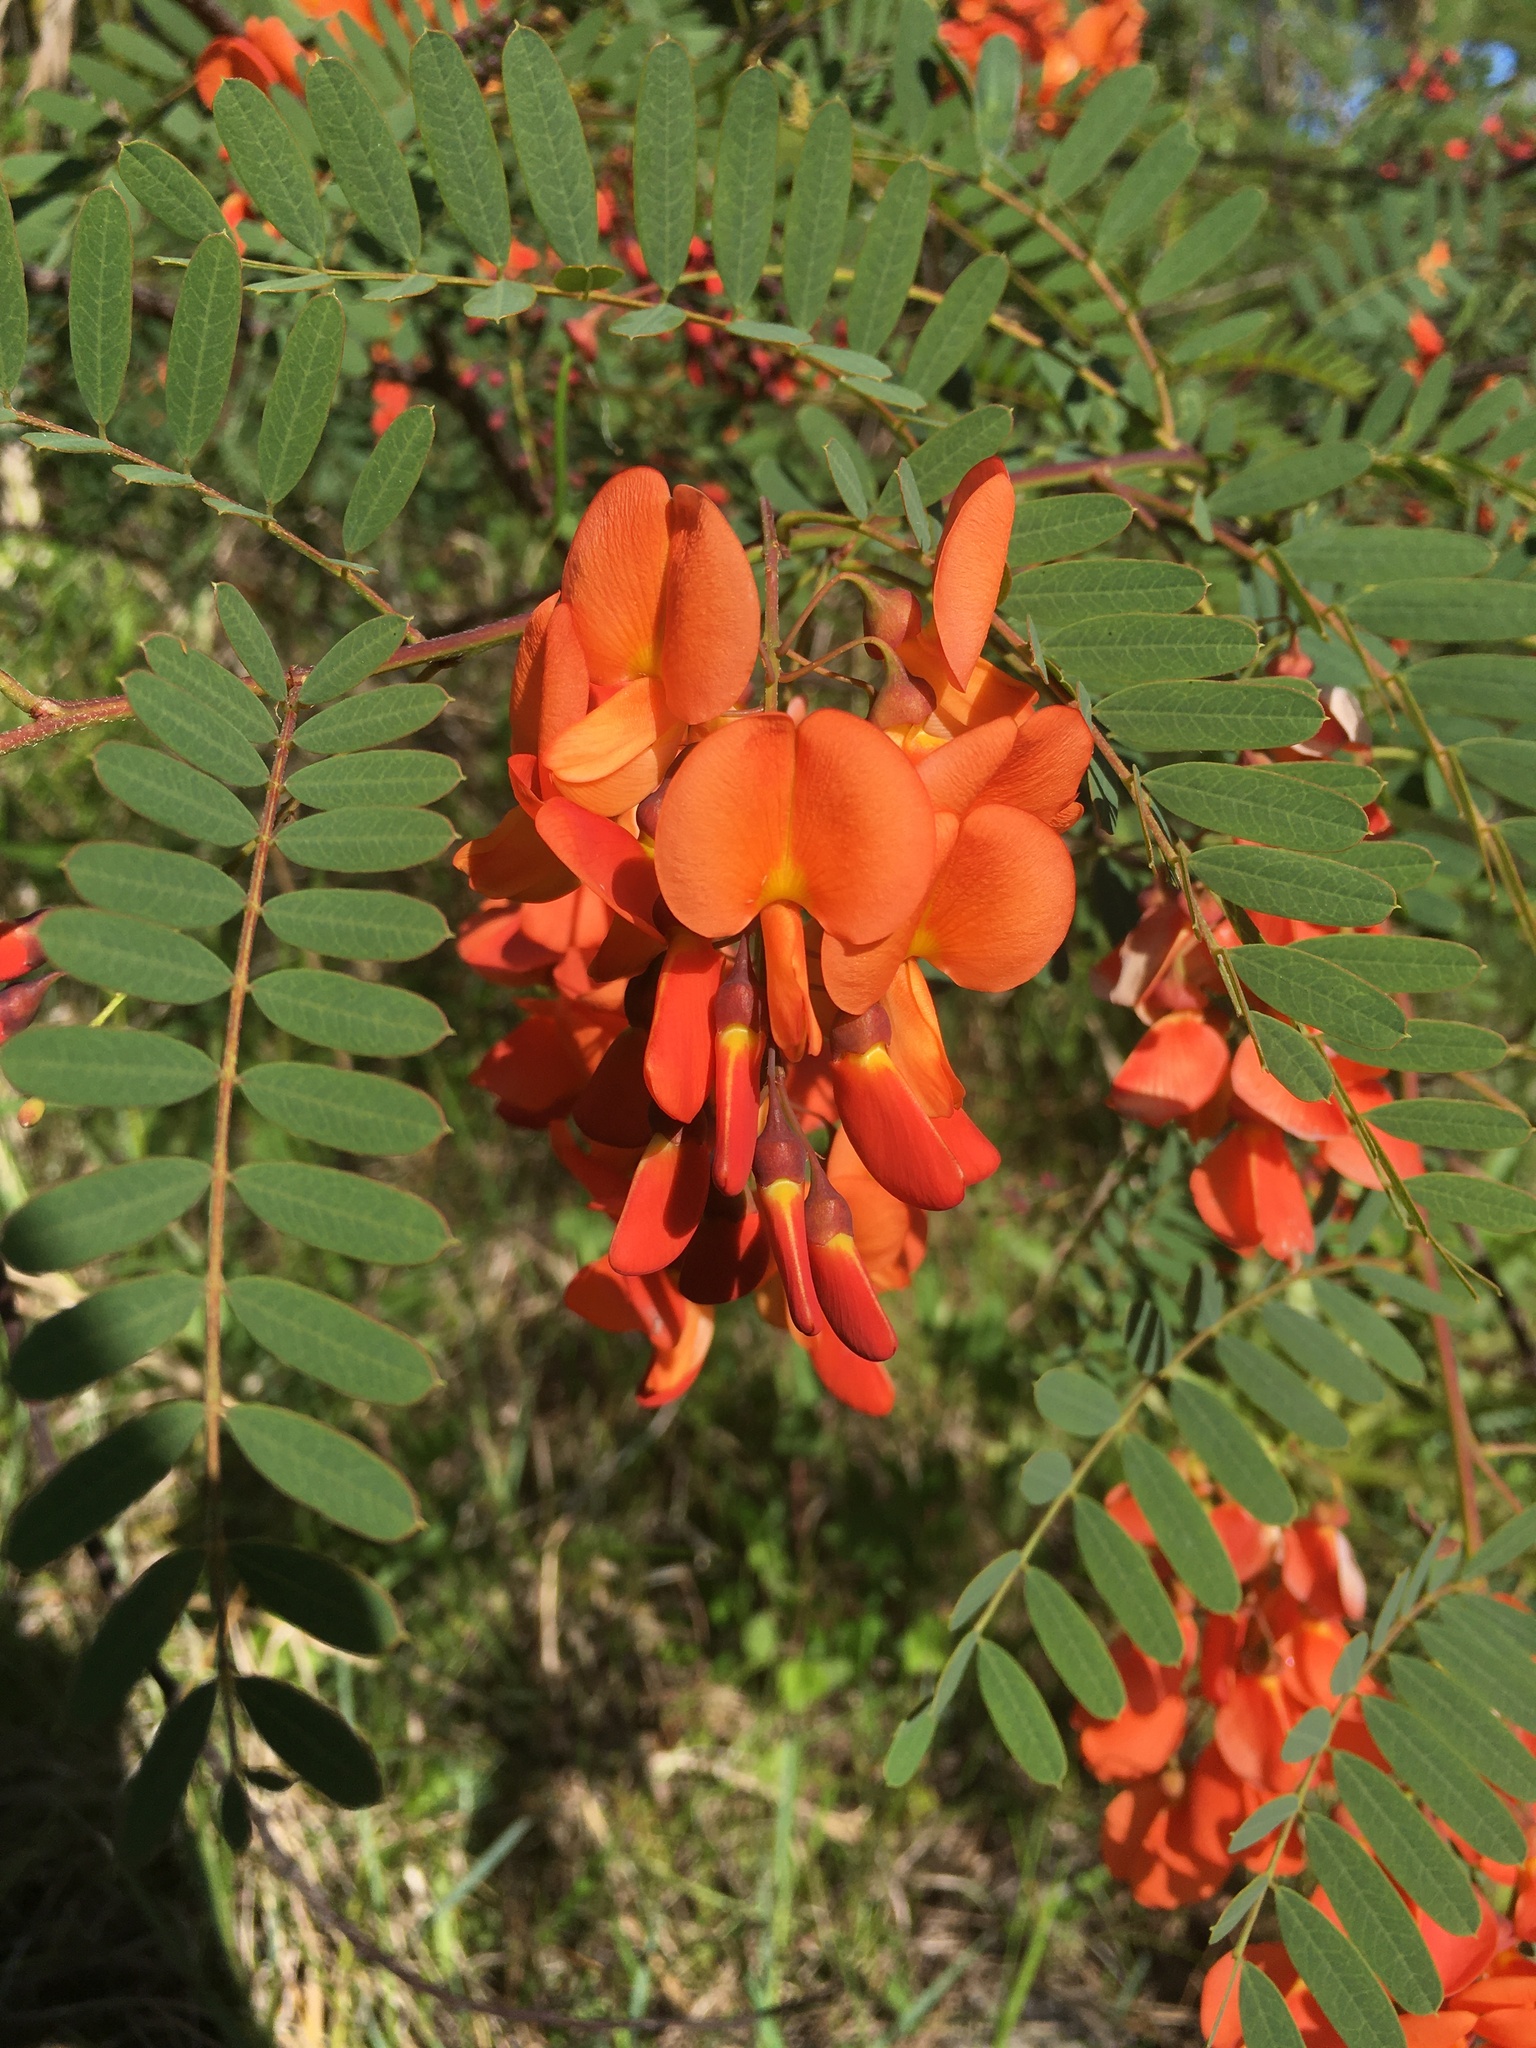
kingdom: Plantae
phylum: Tracheophyta
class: Magnoliopsida
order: Fabales
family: Fabaceae
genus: Sesbania
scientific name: Sesbania punicea
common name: Rattlebox
